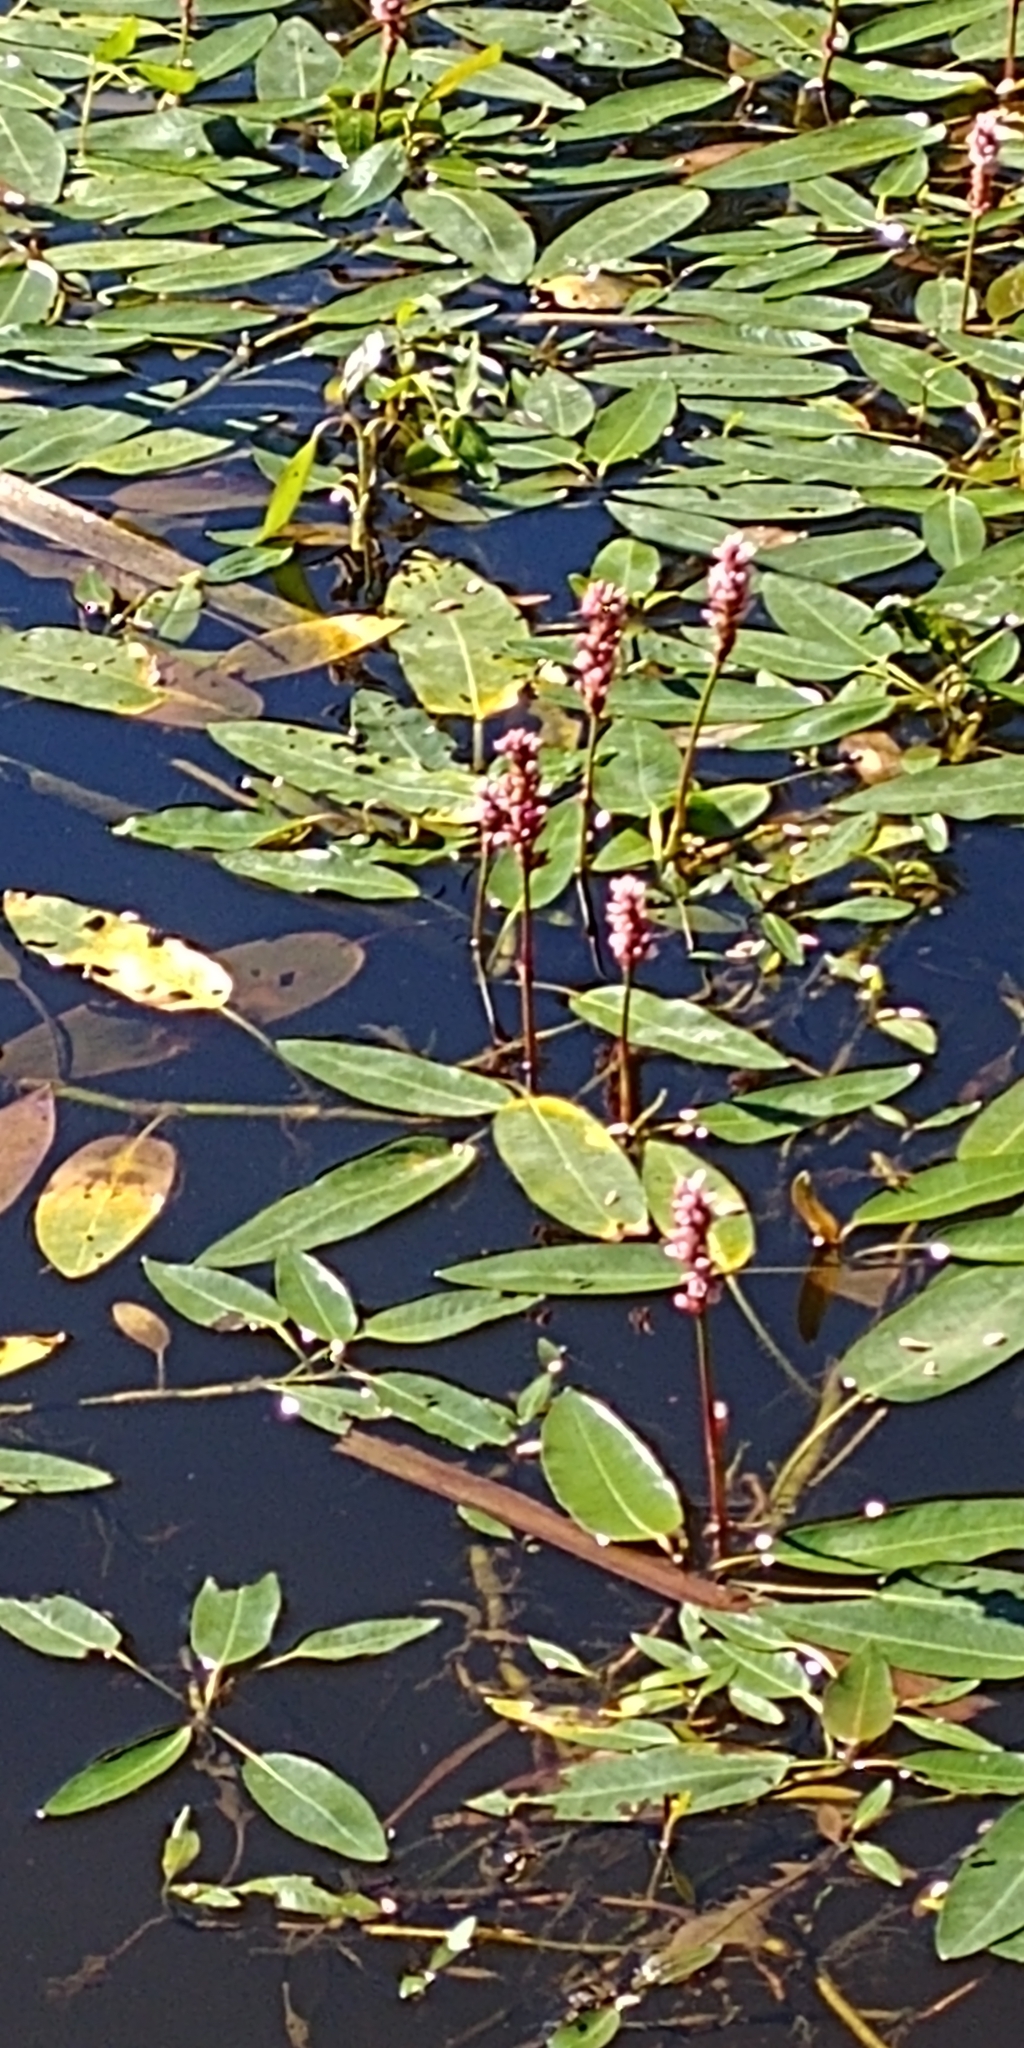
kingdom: Plantae
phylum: Tracheophyta
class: Magnoliopsida
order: Caryophyllales
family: Polygonaceae
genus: Persicaria
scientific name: Persicaria amphibia
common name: Amphibious bistort
